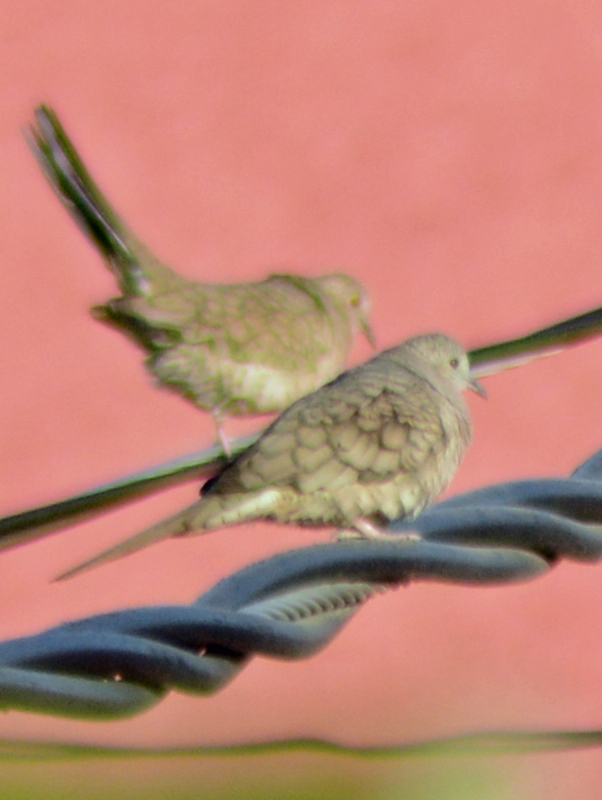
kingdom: Animalia
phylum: Chordata
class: Aves
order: Columbiformes
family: Columbidae
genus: Columbina
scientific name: Columbina inca
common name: Inca dove
